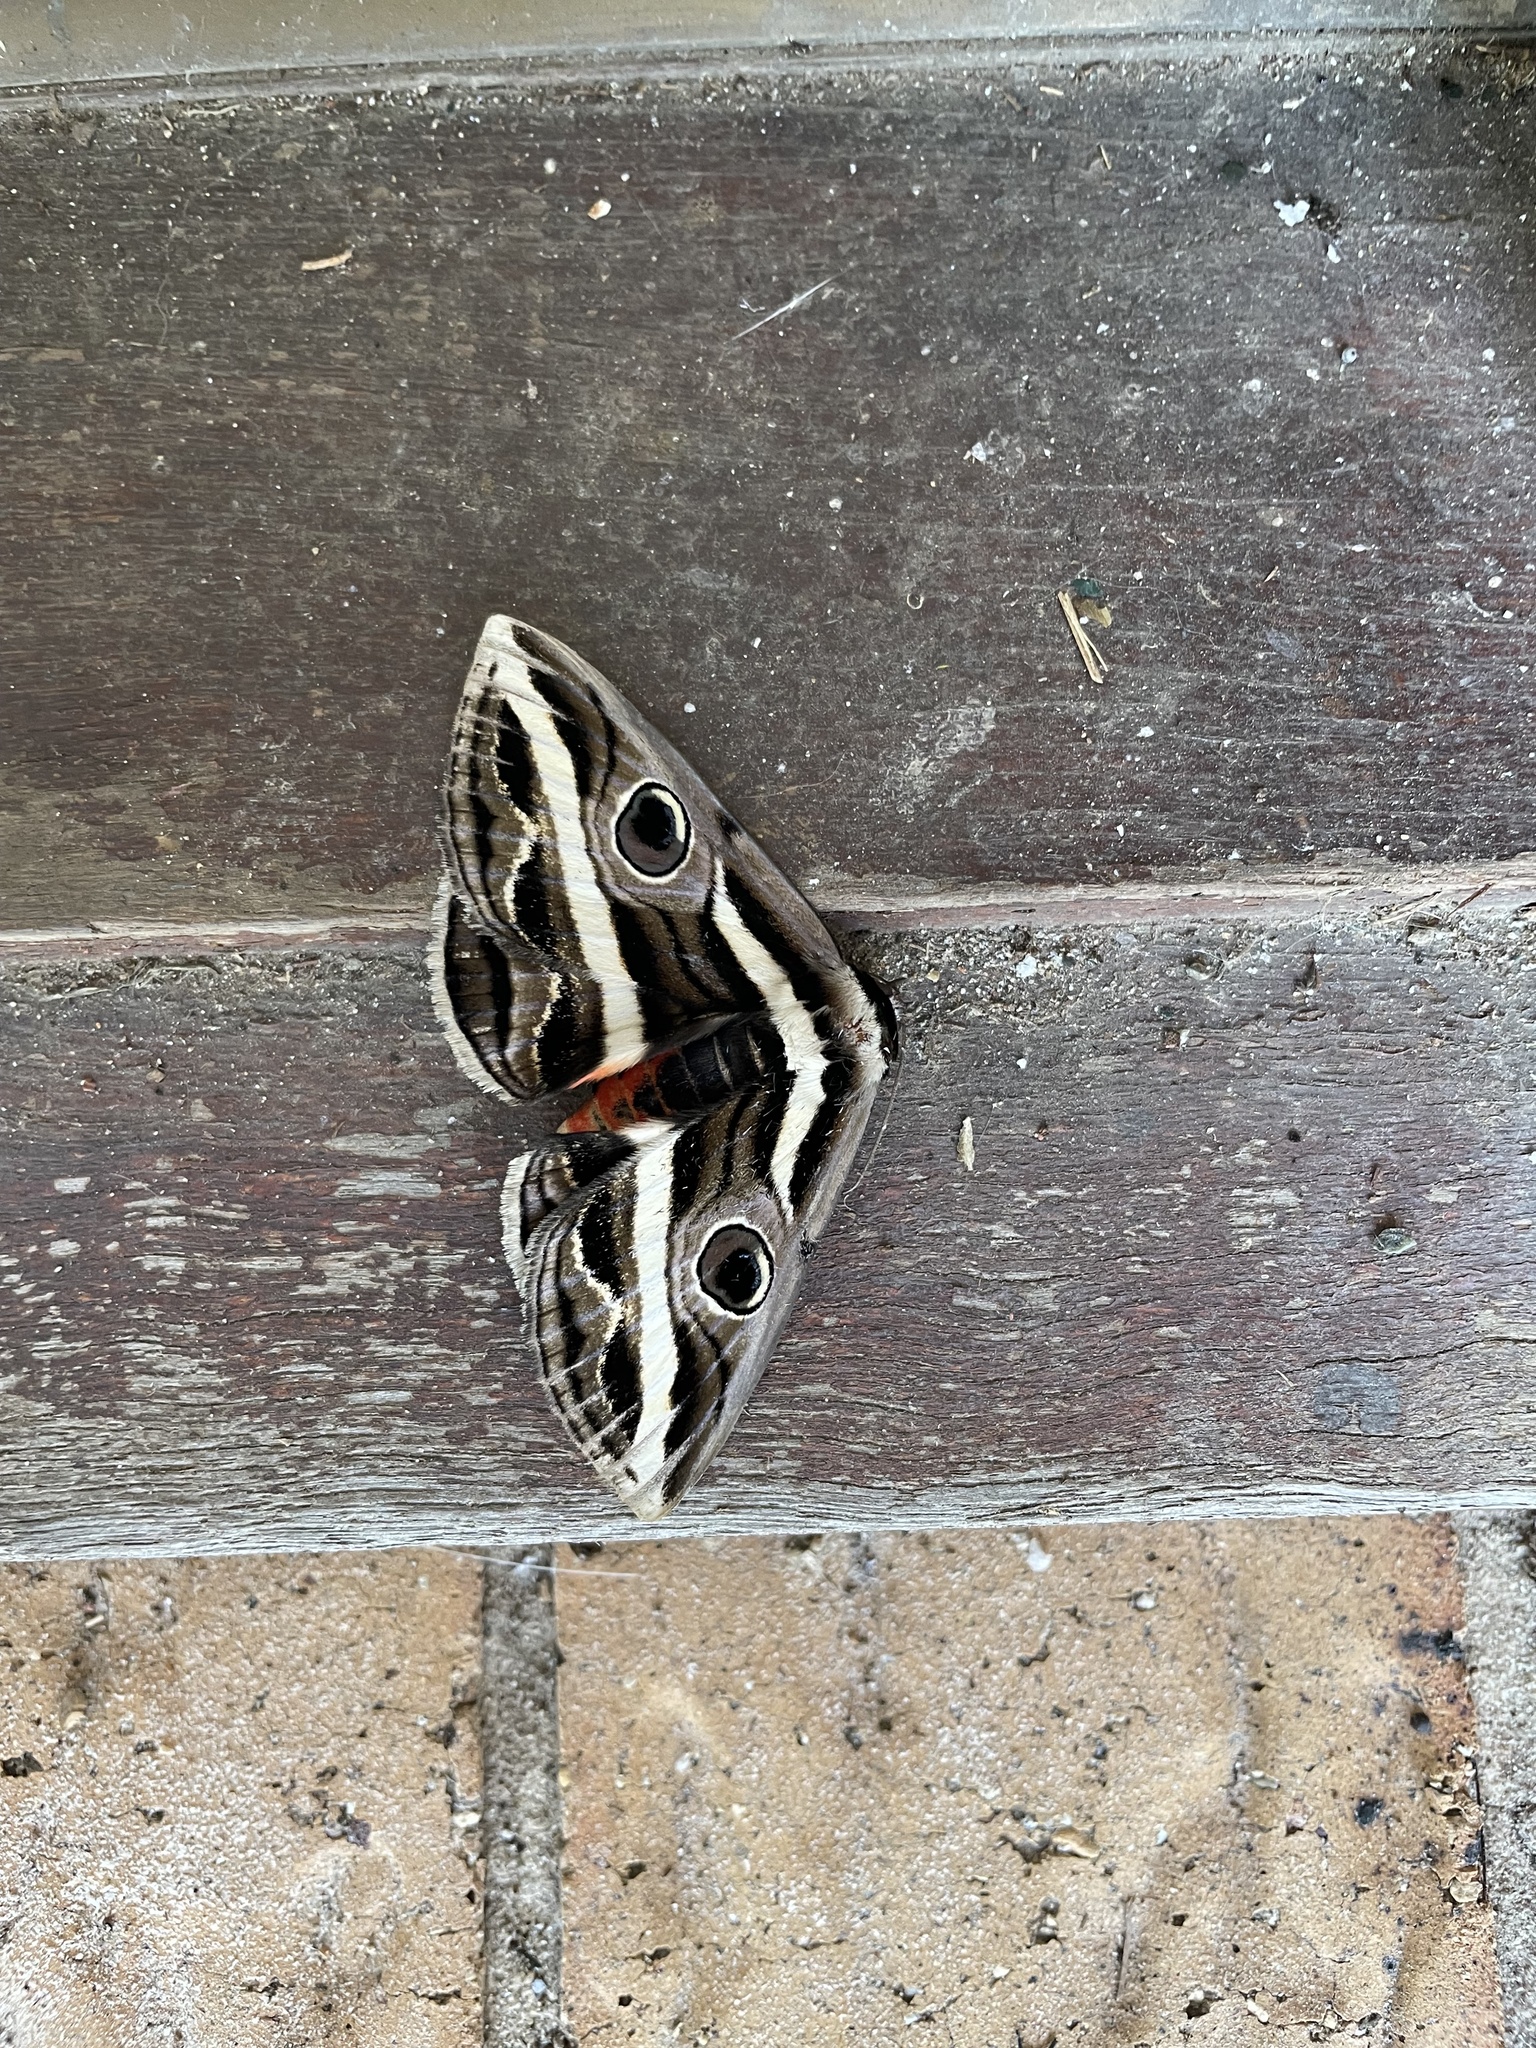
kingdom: Animalia
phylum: Arthropoda
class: Insecta
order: Lepidoptera
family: Erebidae
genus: Donuca
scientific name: Donuca rubropicta
